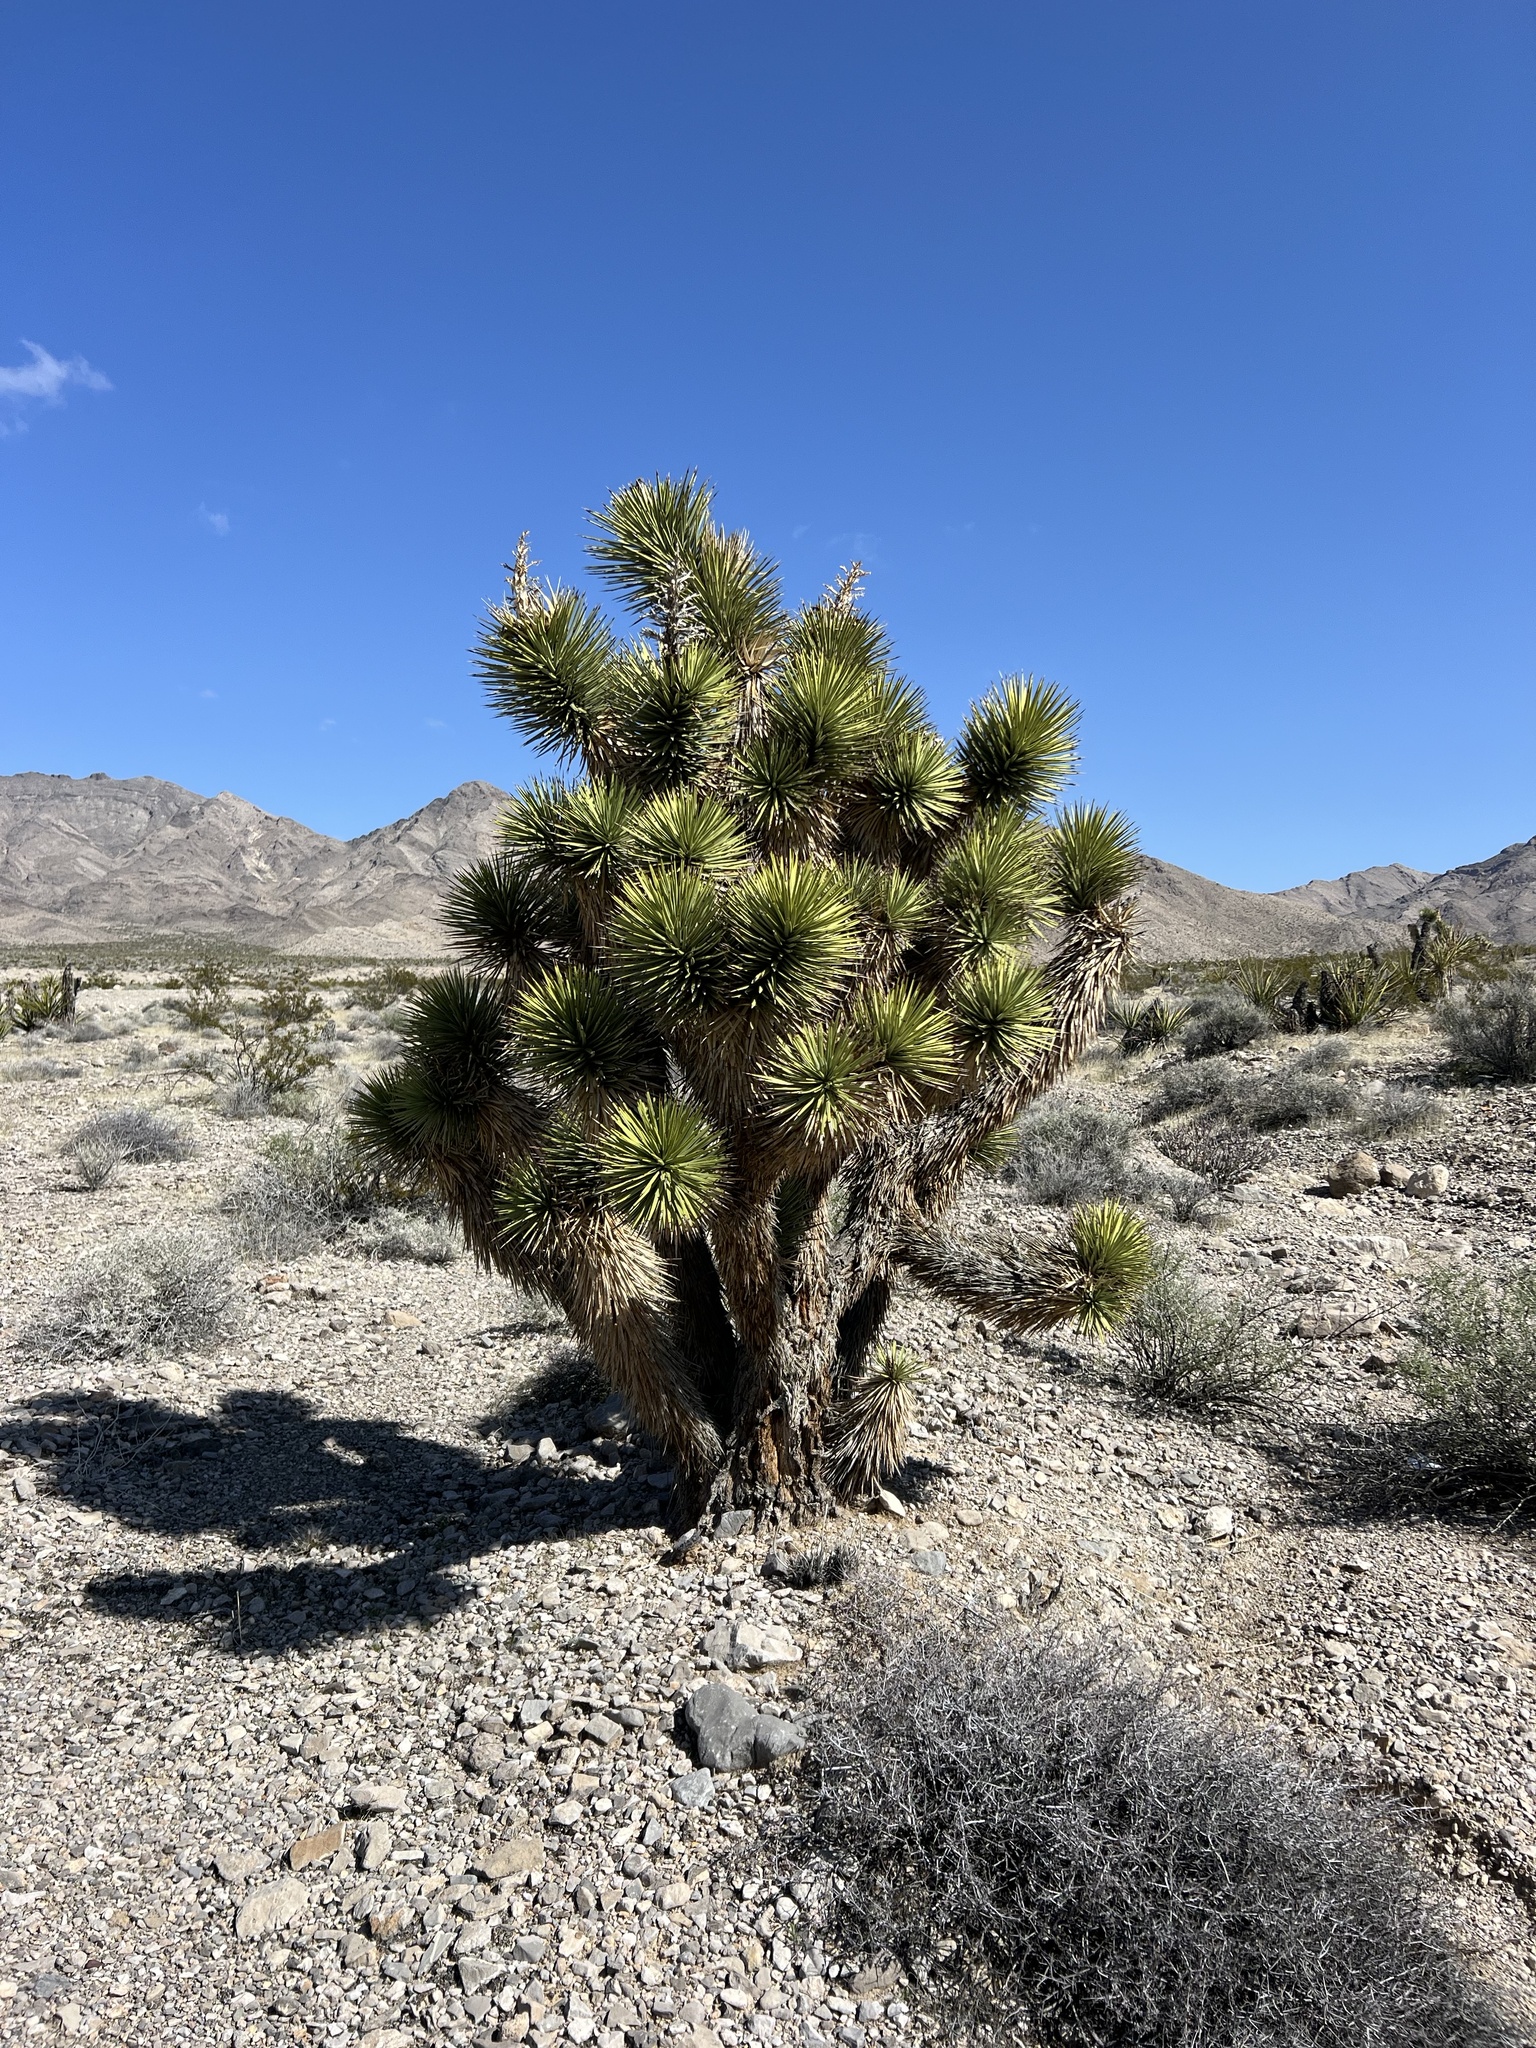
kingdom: Plantae
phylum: Tracheophyta
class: Liliopsida
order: Asparagales
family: Asparagaceae
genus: Yucca
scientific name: Yucca brevifolia
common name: Joshua tree
